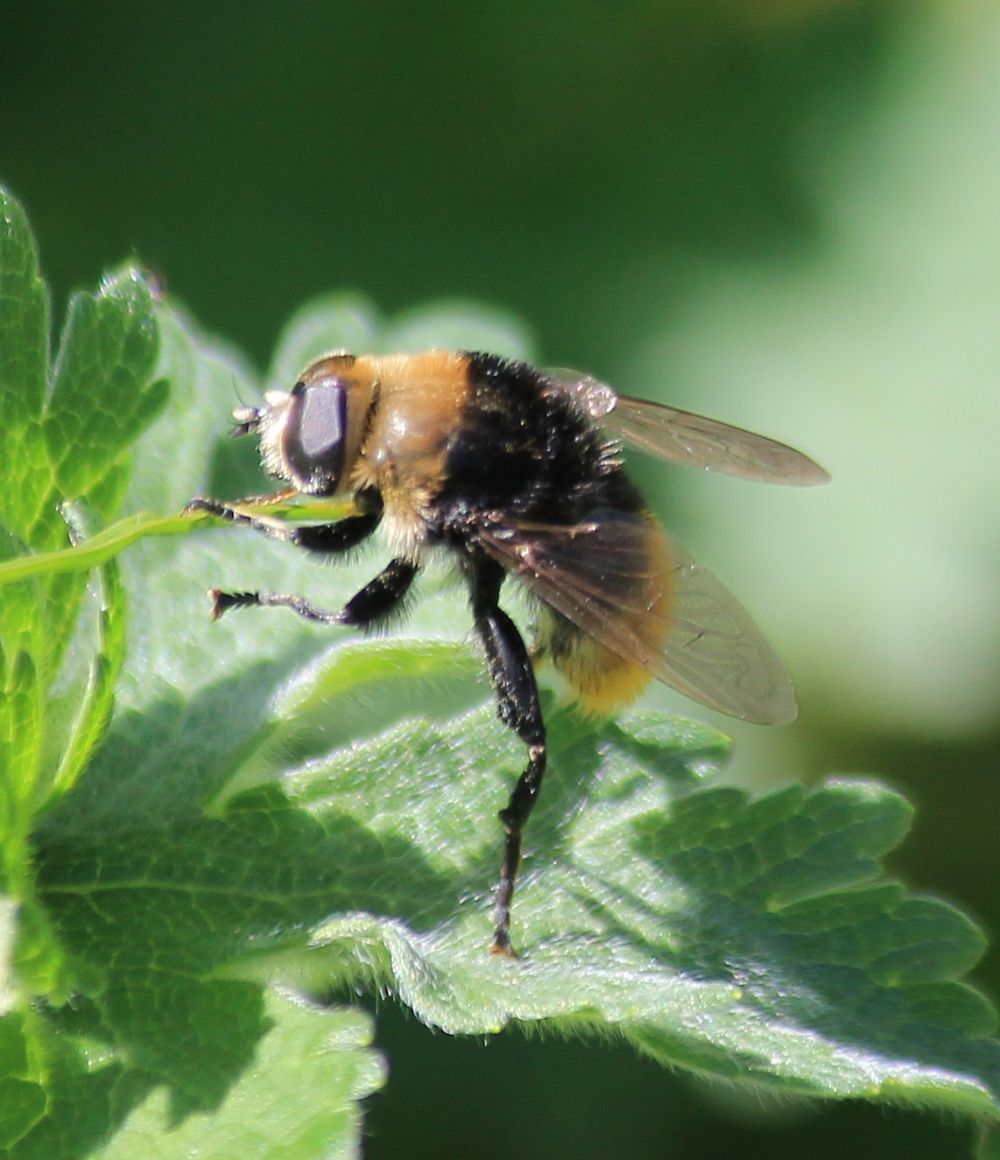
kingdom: Animalia
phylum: Arthropoda
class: Insecta
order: Diptera
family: Syrphidae
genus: Merodon
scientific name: Merodon equestris
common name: Greater bulb-fly
